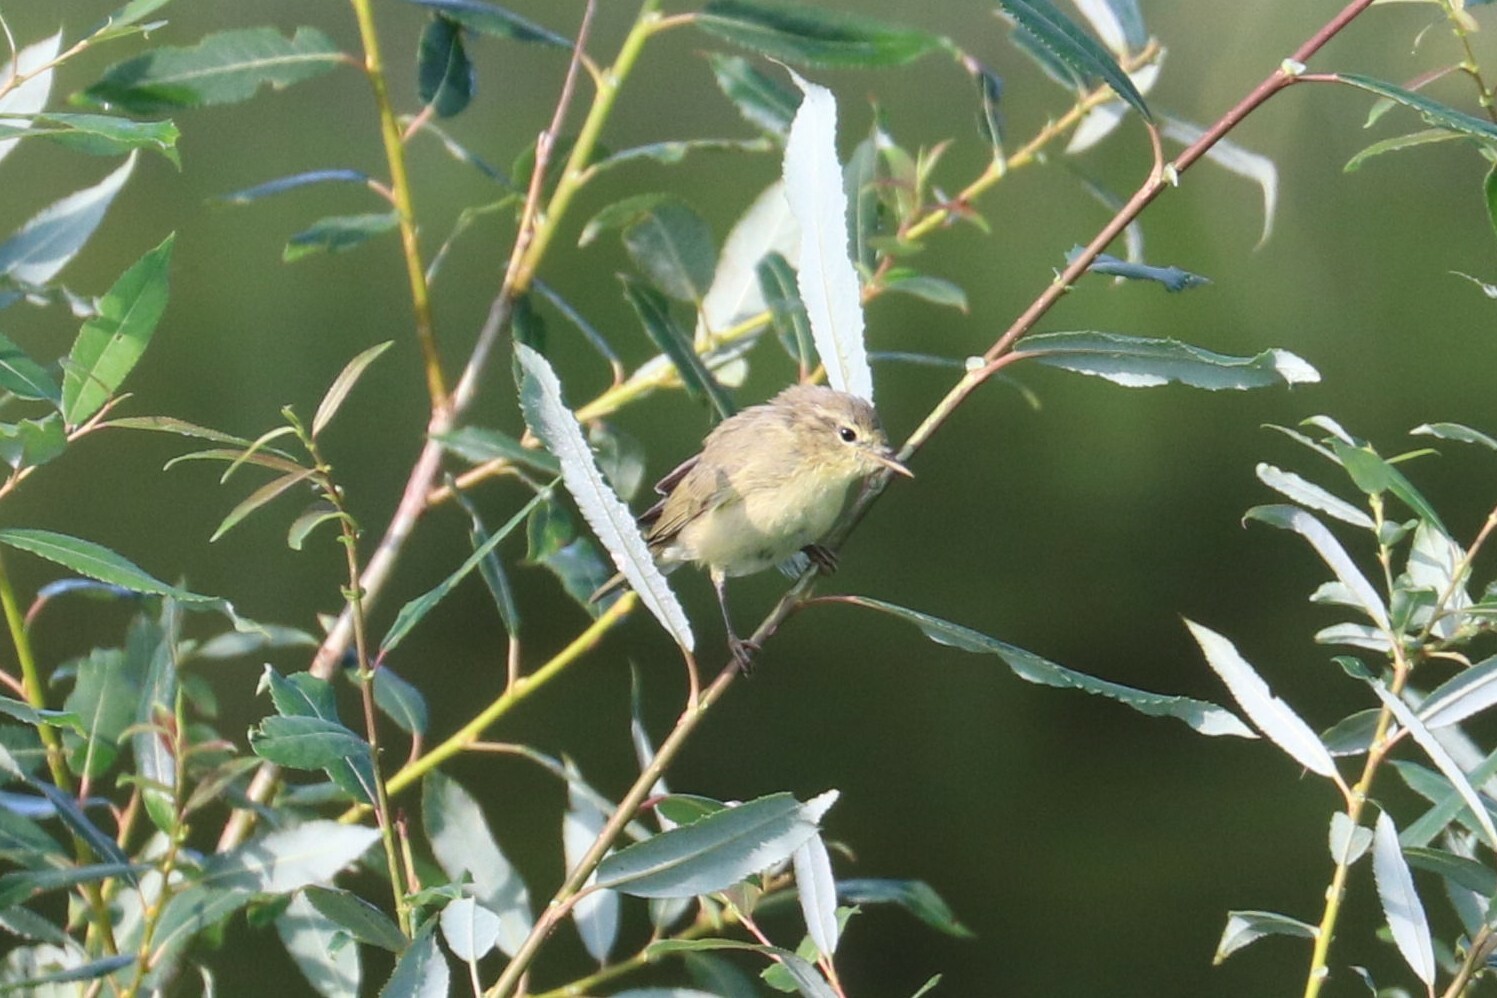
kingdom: Animalia
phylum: Chordata
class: Aves
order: Passeriformes
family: Phylloscopidae
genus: Phylloscopus
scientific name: Phylloscopus collybita
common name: Common chiffchaff
